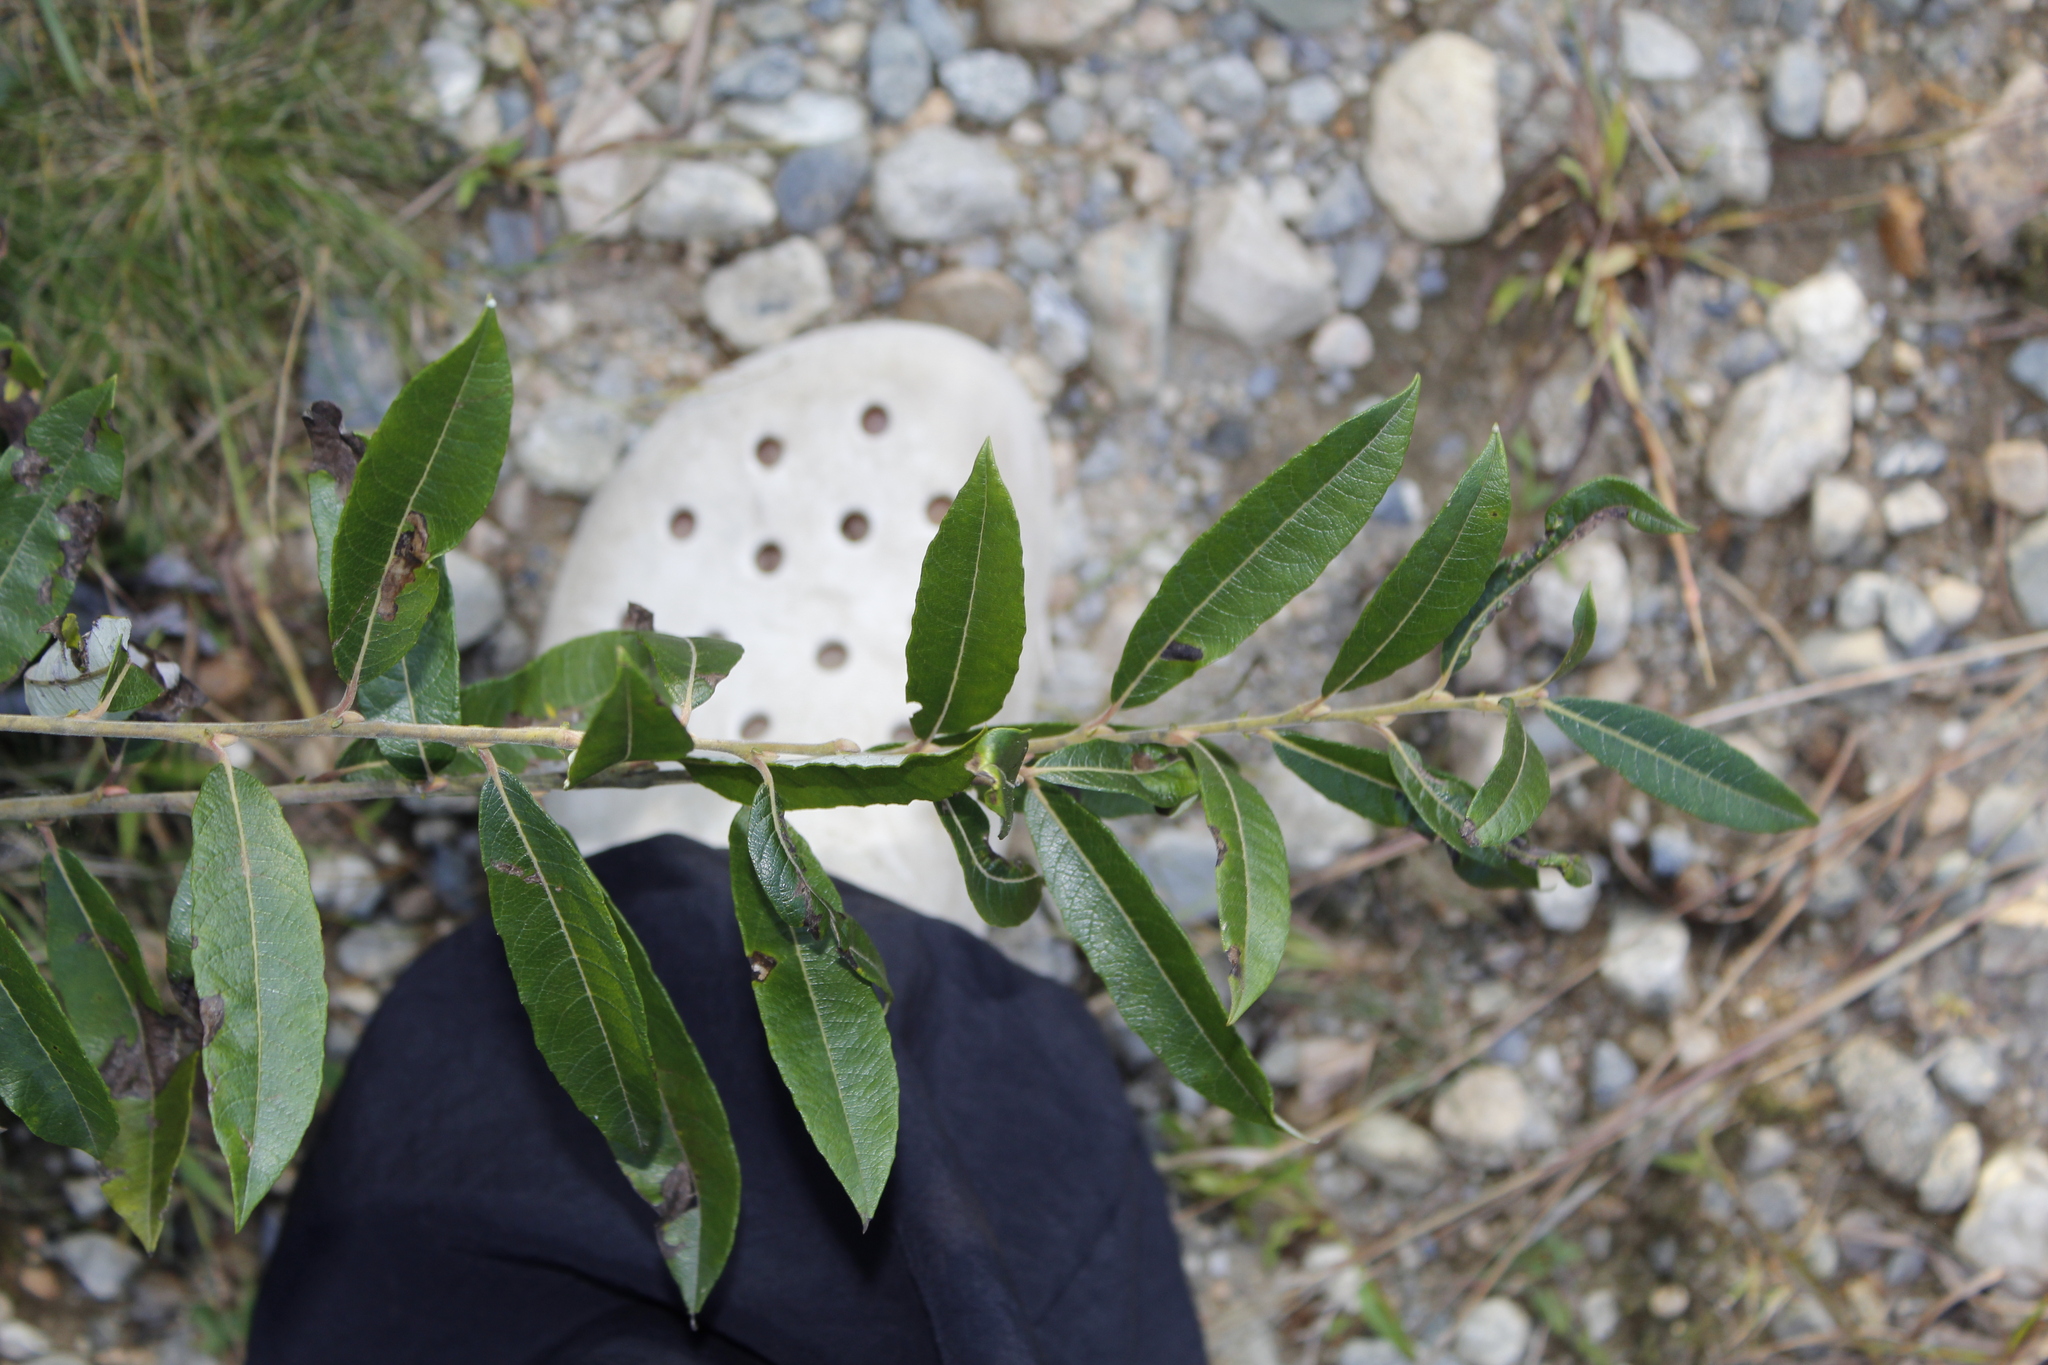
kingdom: Plantae
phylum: Tracheophyta
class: Magnoliopsida
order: Malpighiales
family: Salicaceae
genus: Salix
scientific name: Salix humilis
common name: Prairie willow
